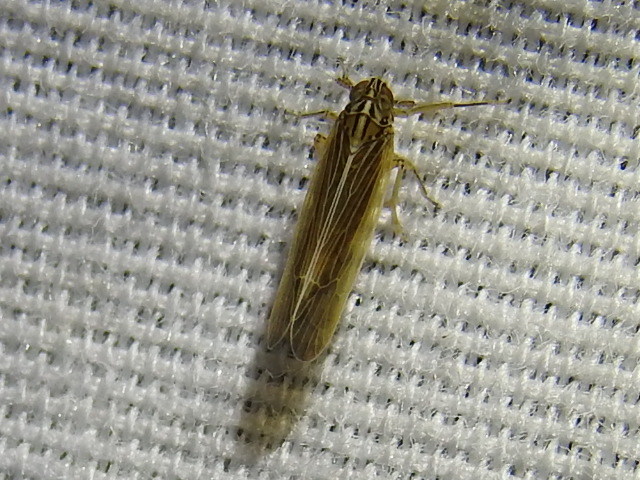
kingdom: Animalia
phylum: Arthropoda
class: Insecta
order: Hemiptera
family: Delphacidae
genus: Nothodelphax
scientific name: Nothodelphax slossonae
